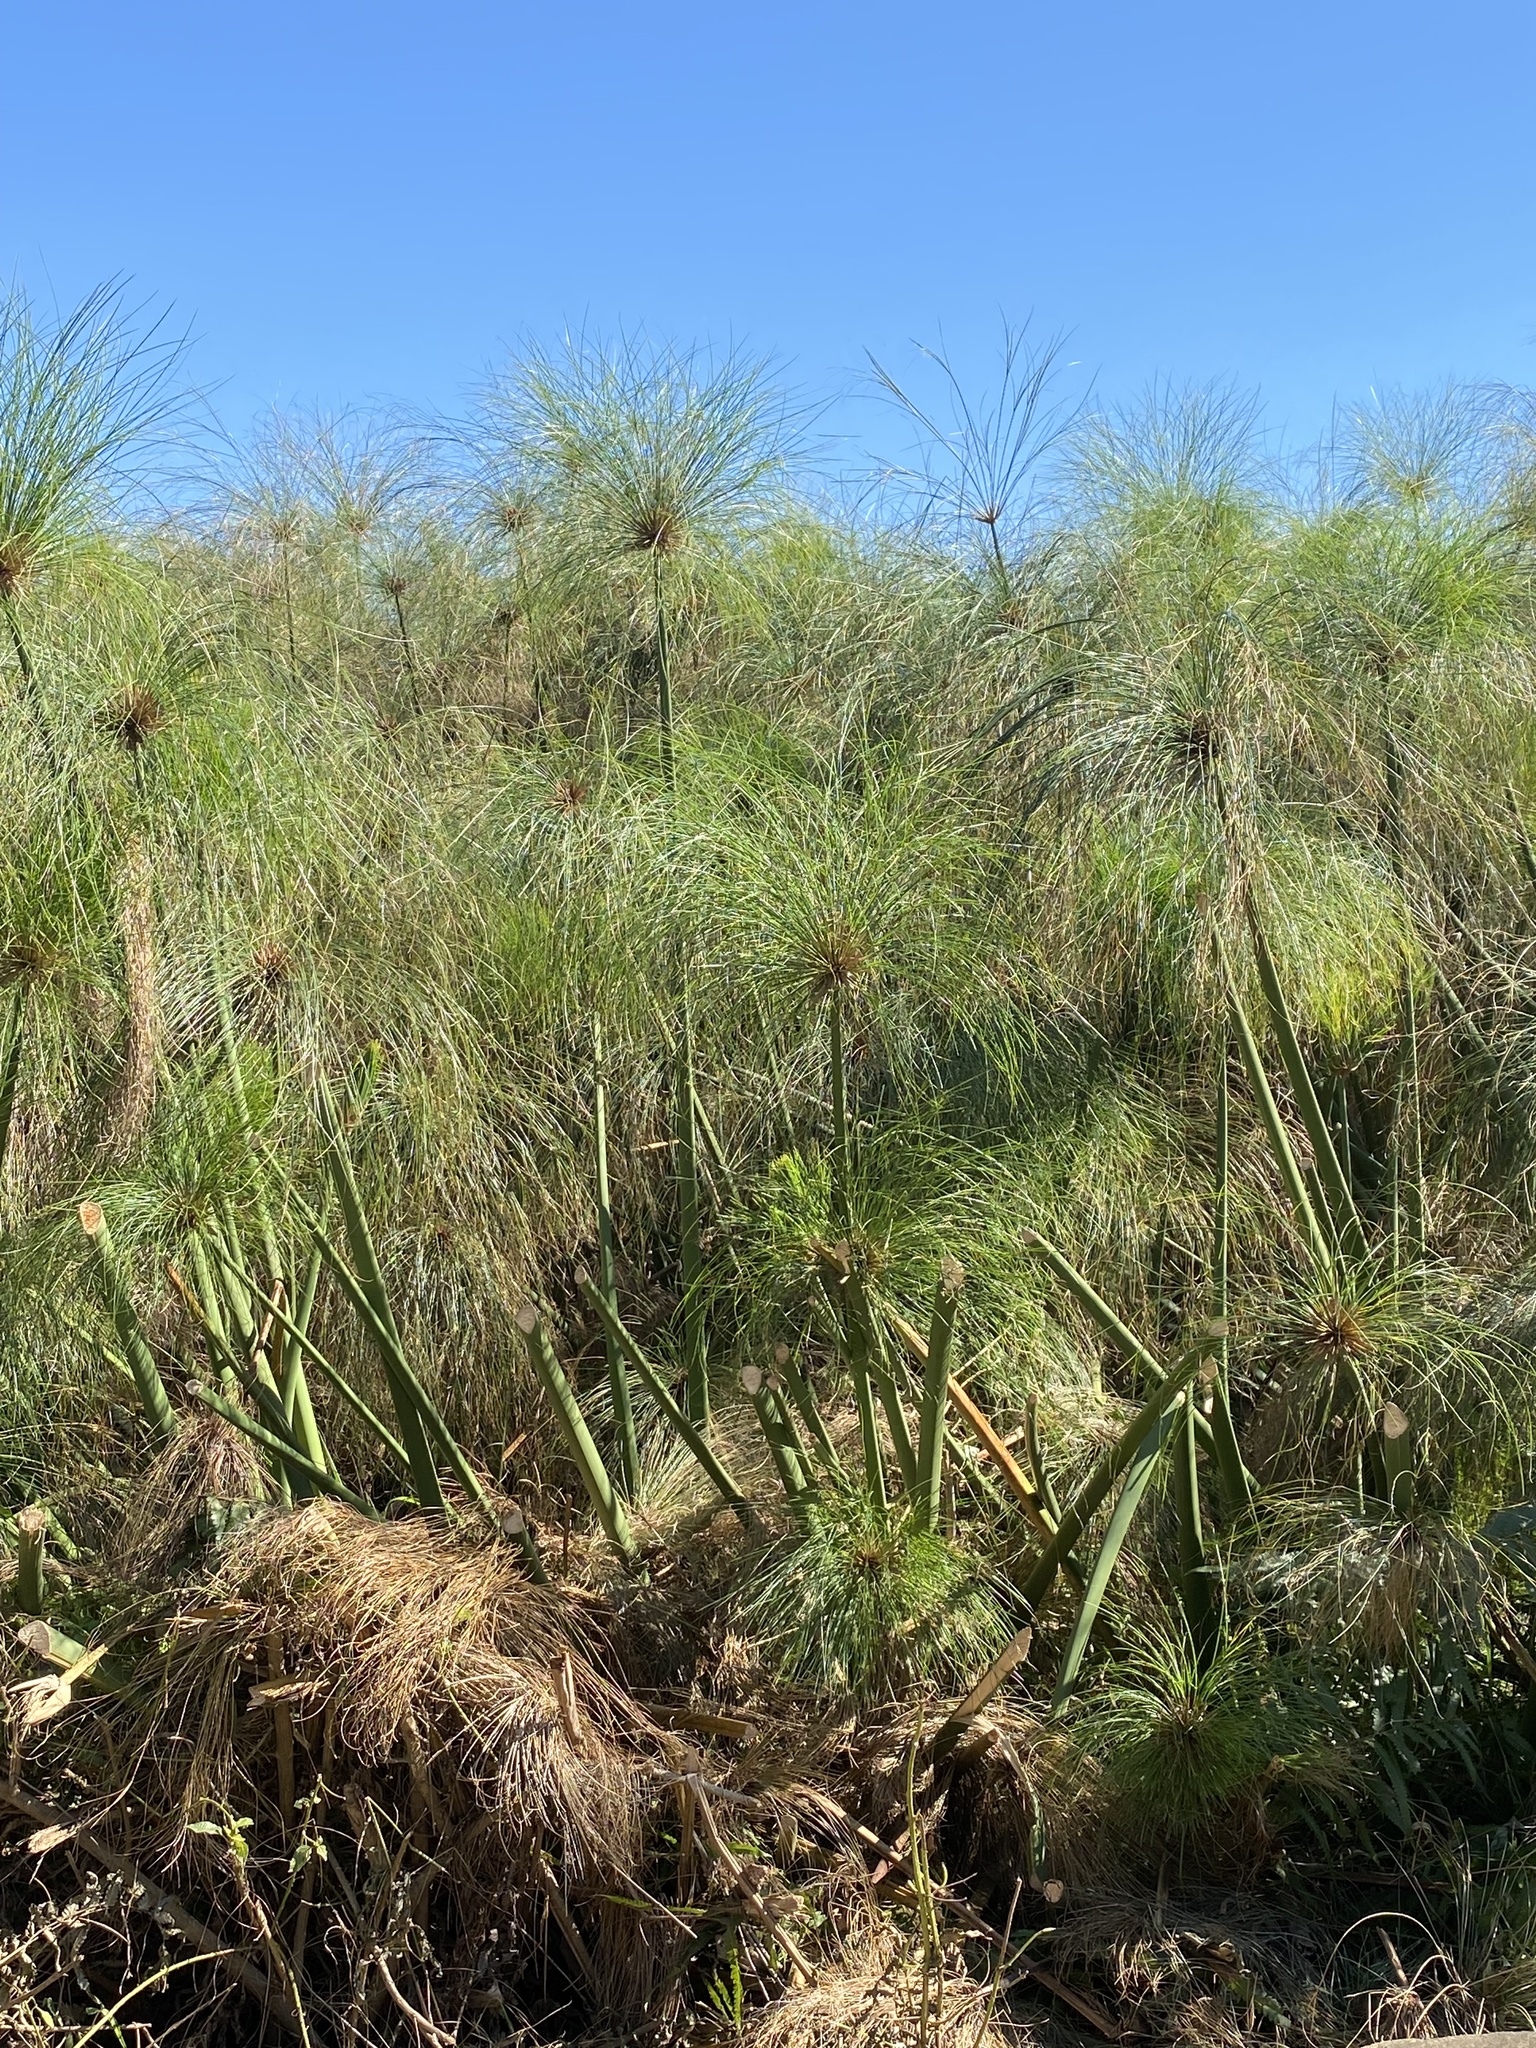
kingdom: Plantae
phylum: Tracheophyta
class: Liliopsida
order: Poales
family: Cyperaceae
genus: Cyperus
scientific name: Cyperus papyrus
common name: Papyrus
